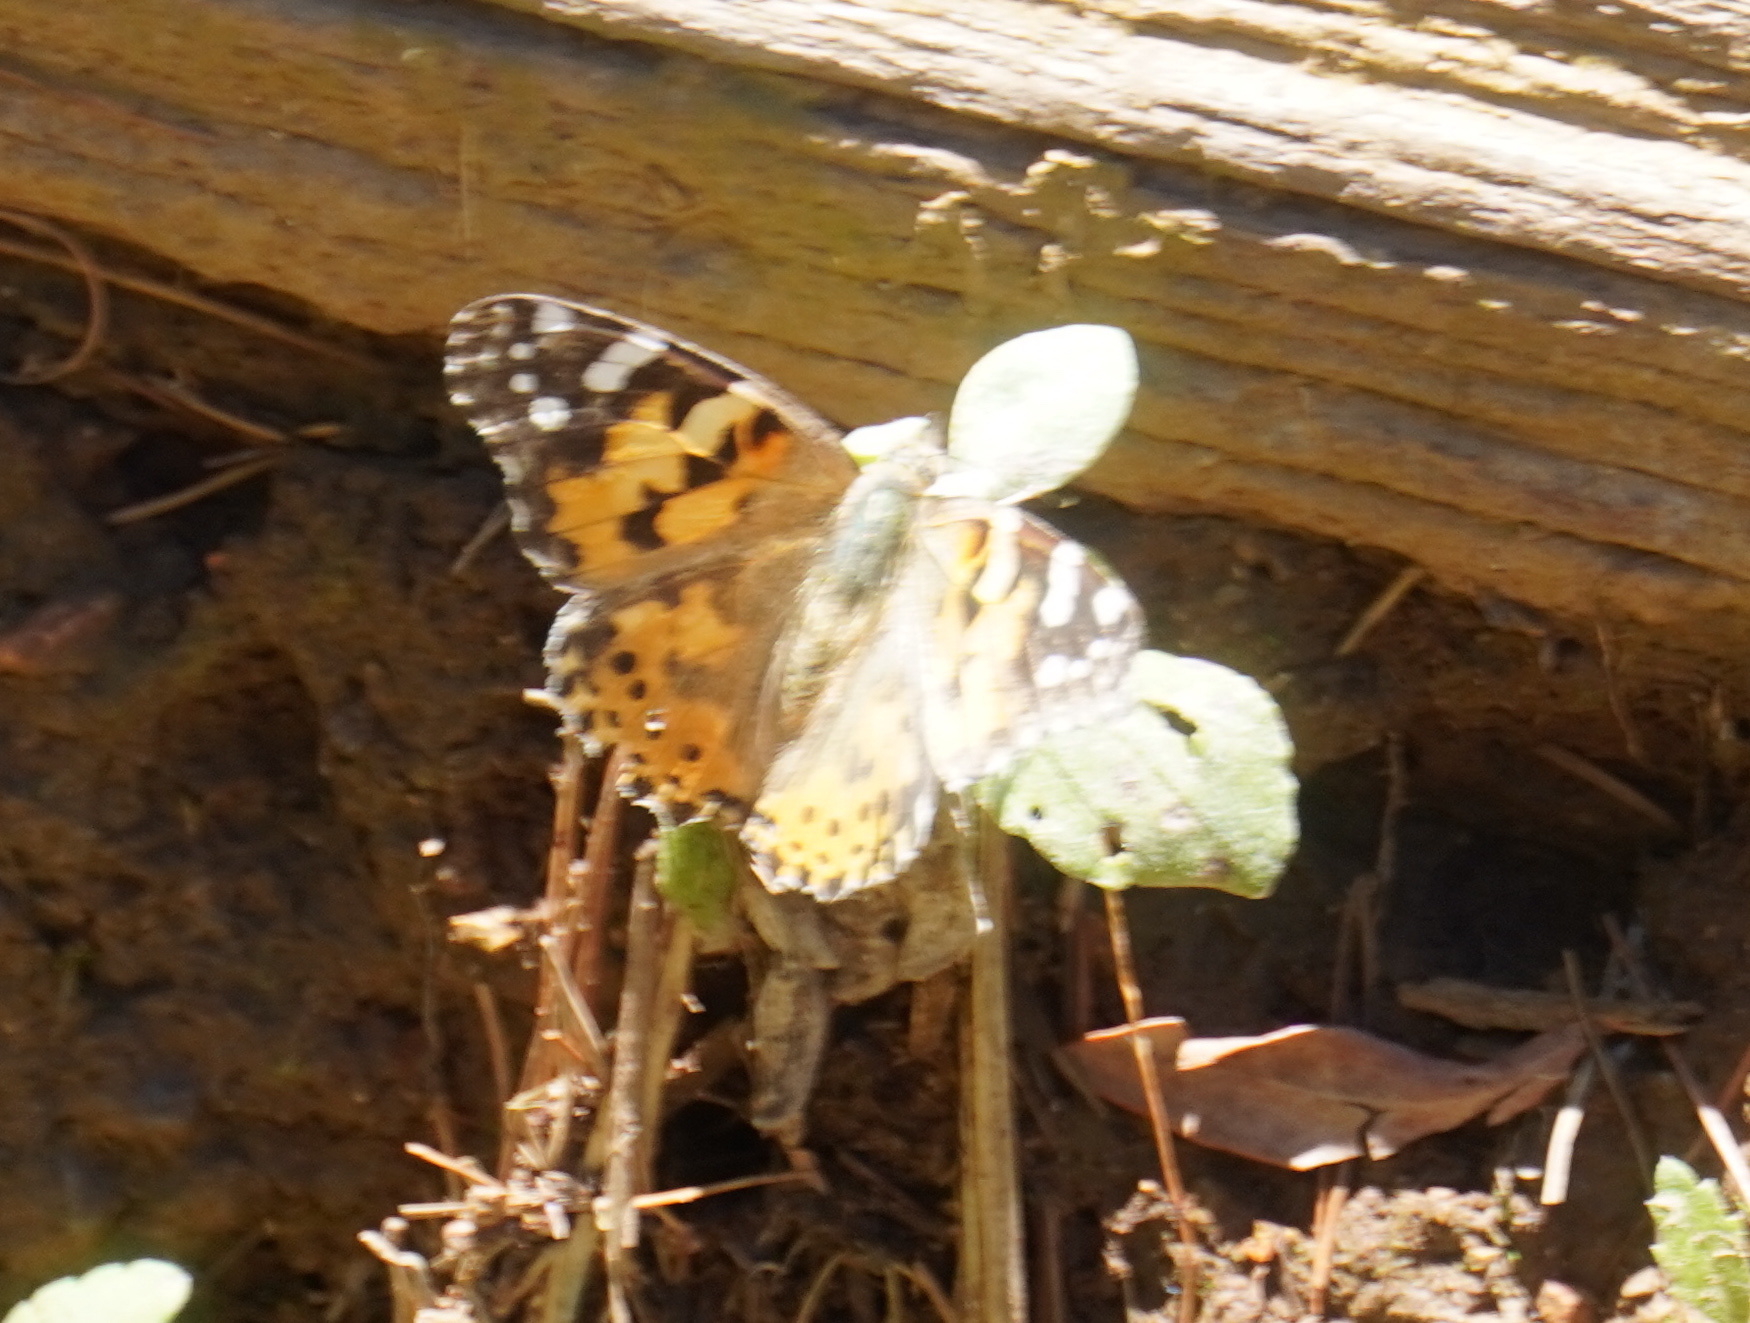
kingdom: Animalia
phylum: Arthropoda
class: Insecta
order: Lepidoptera
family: Nymphalidae
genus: Vanessa
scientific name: Vanessa cardui
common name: Painted lady
